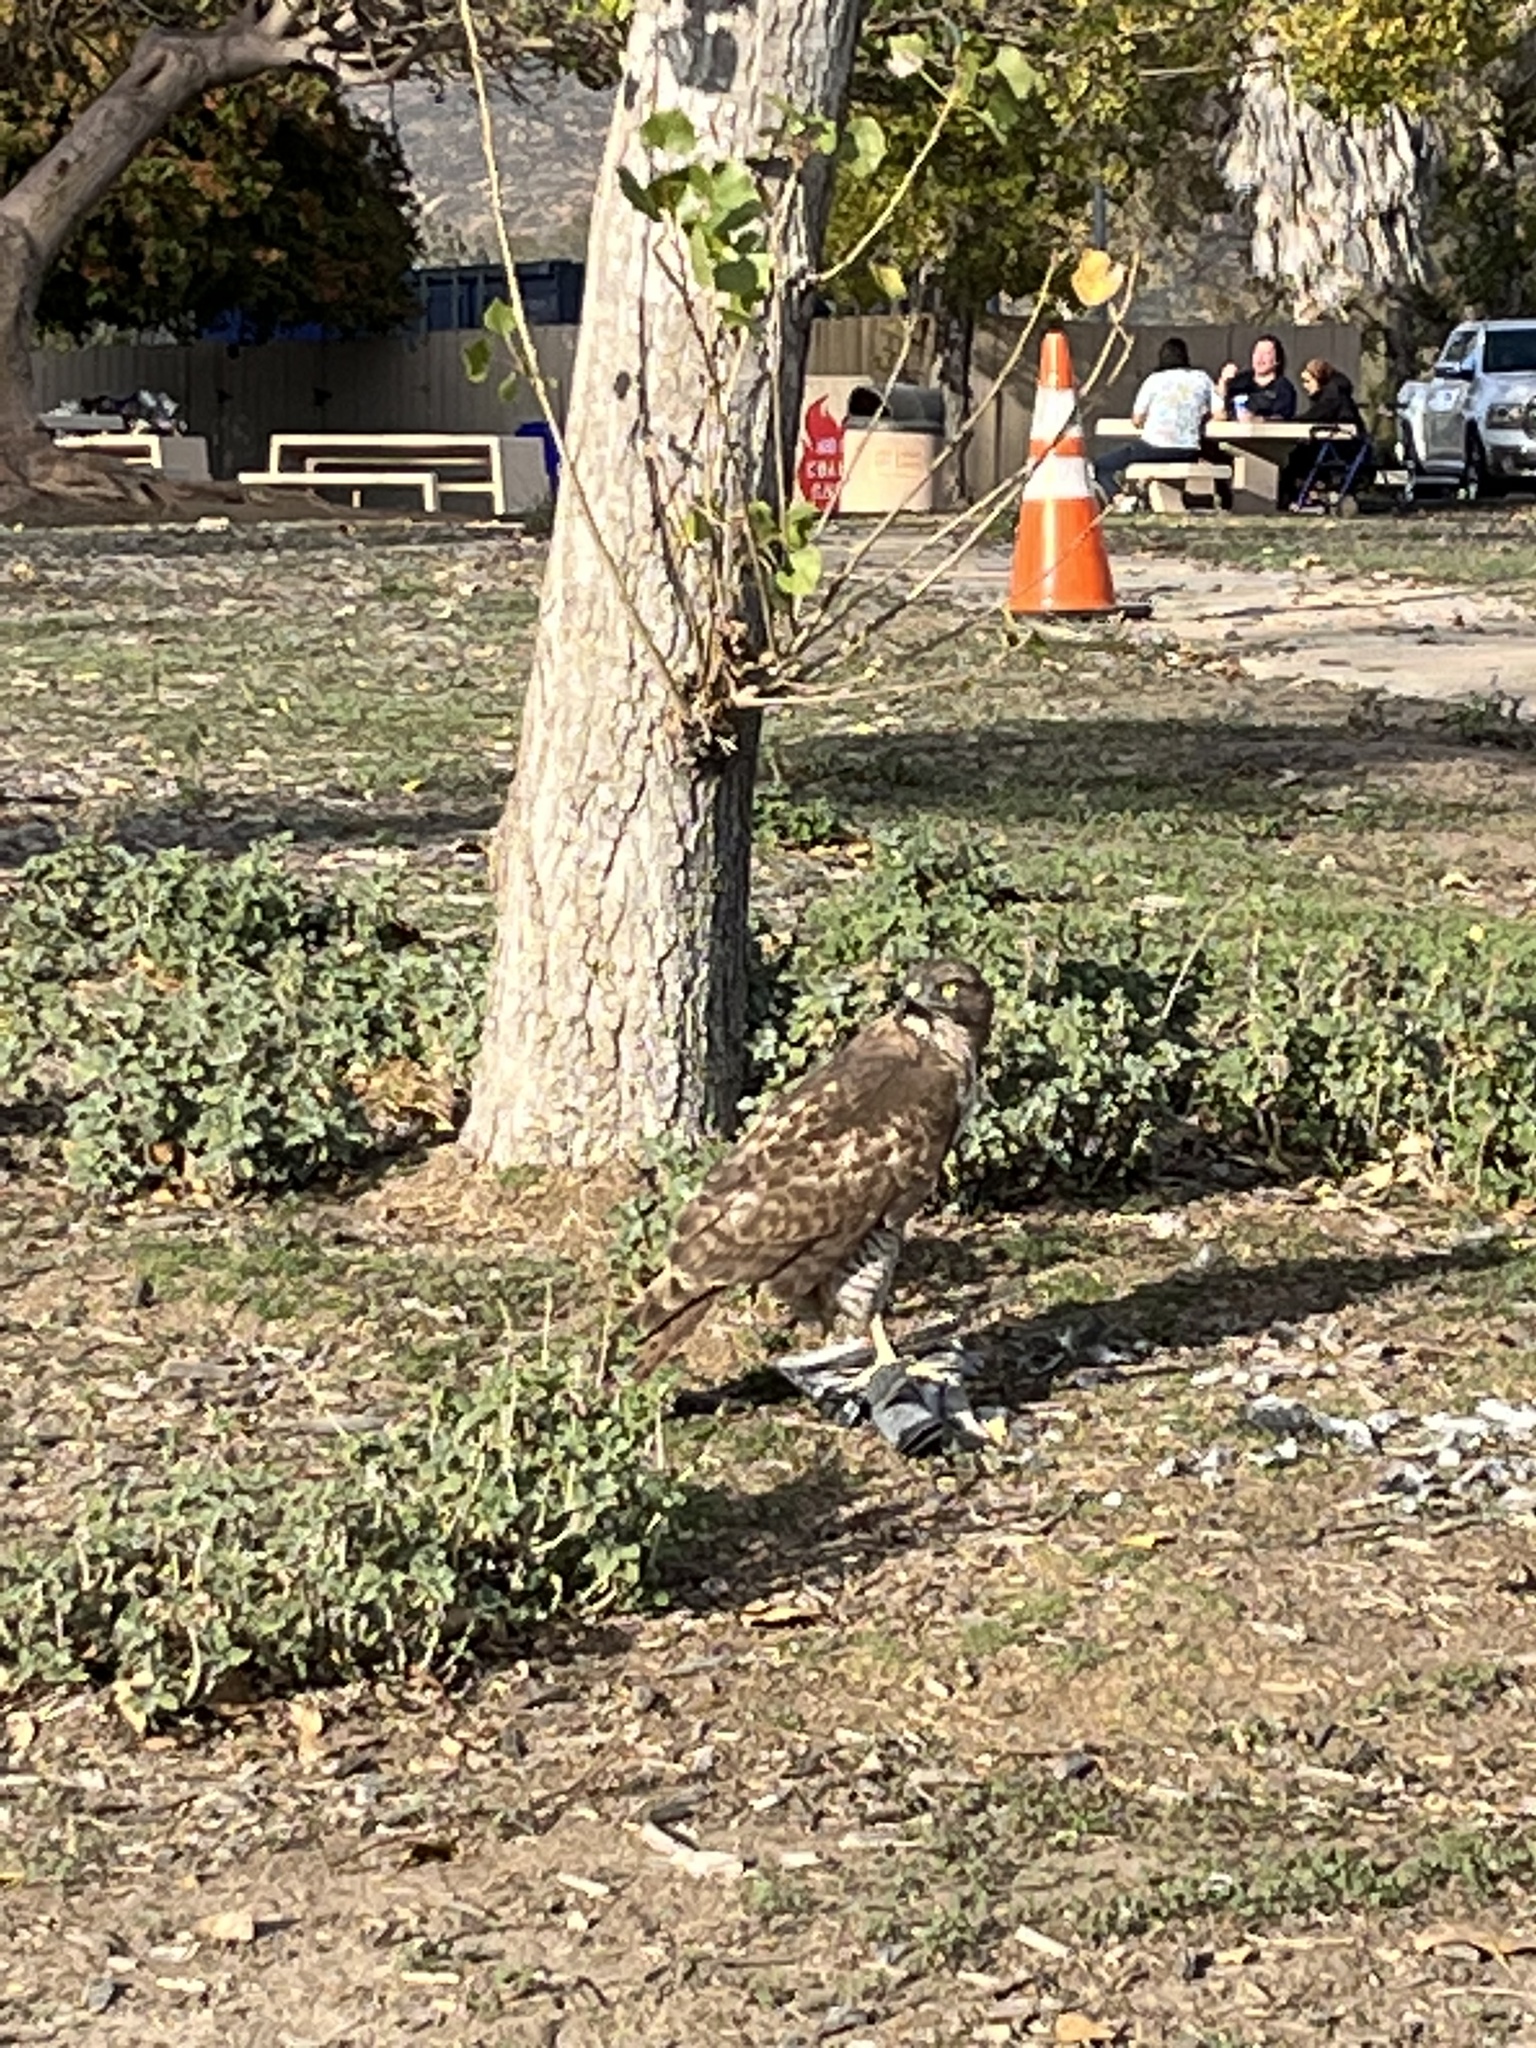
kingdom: Animalia
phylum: Chordata
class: Aves
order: Accipitriformes
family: Accipitridae
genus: Buteo
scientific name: Buteo jamaicensis
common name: Red-tailed hawk
